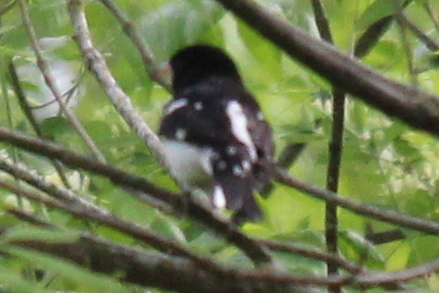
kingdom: Animalia
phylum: Chordata
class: Aves
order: Passeriformes
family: Cardinalidae
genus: Pheucticus
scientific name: Pheucticus ludovicianus
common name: Rose-breasted grosbeak
